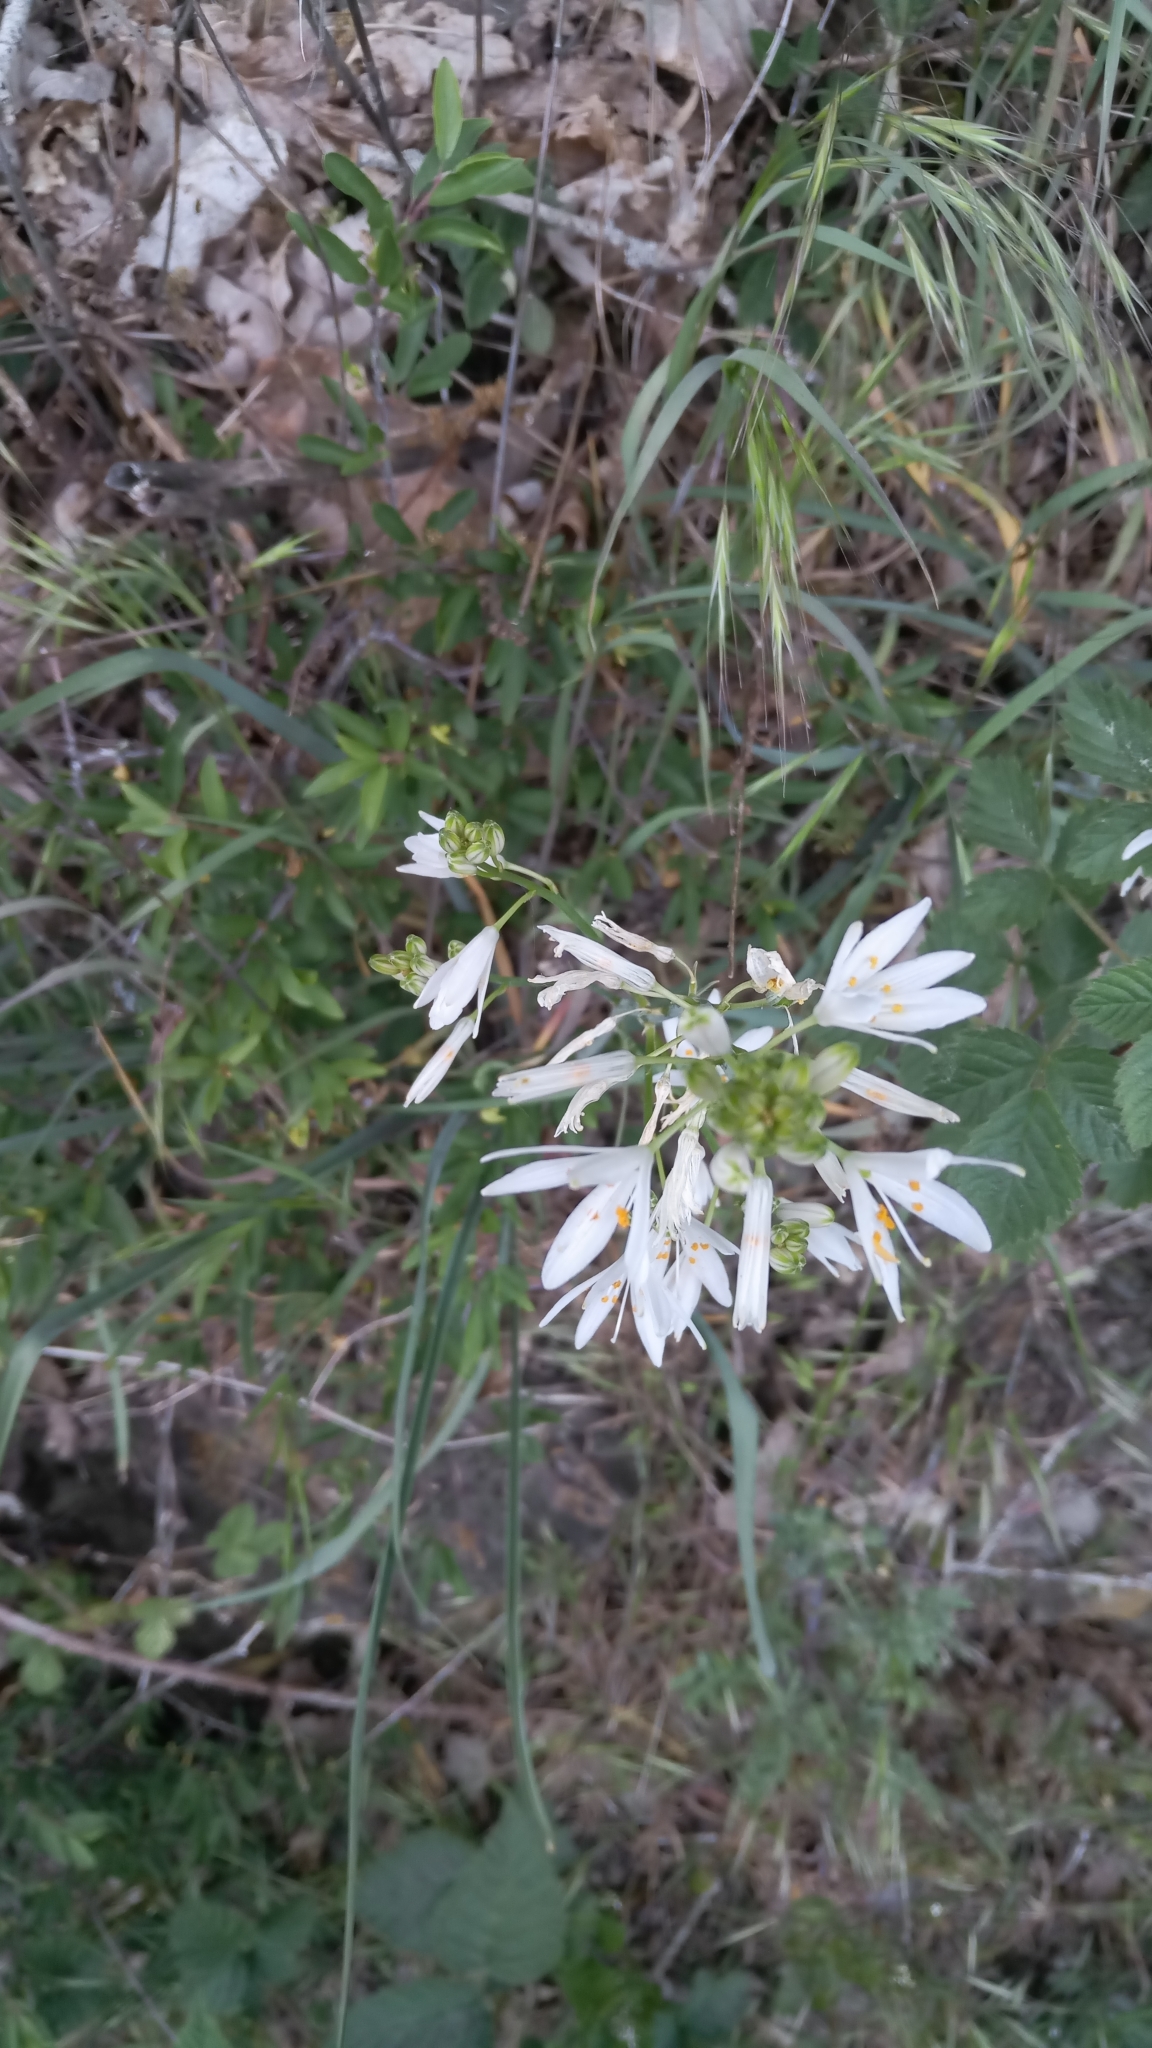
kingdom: Plantae
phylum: Tracheophyta
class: Liliopsida
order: Asparagales
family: Asparagaceae
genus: Anthericum
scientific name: Anthericum liliago
